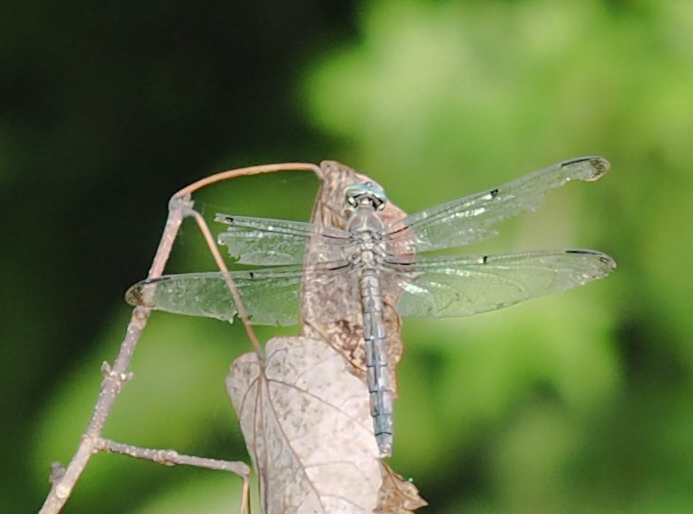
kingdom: Animalia
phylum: Arthropoda
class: Insecta
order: Odonata
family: Libellulidae
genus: Libellula
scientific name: Libellula vibrans
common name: Great blue skimmer
